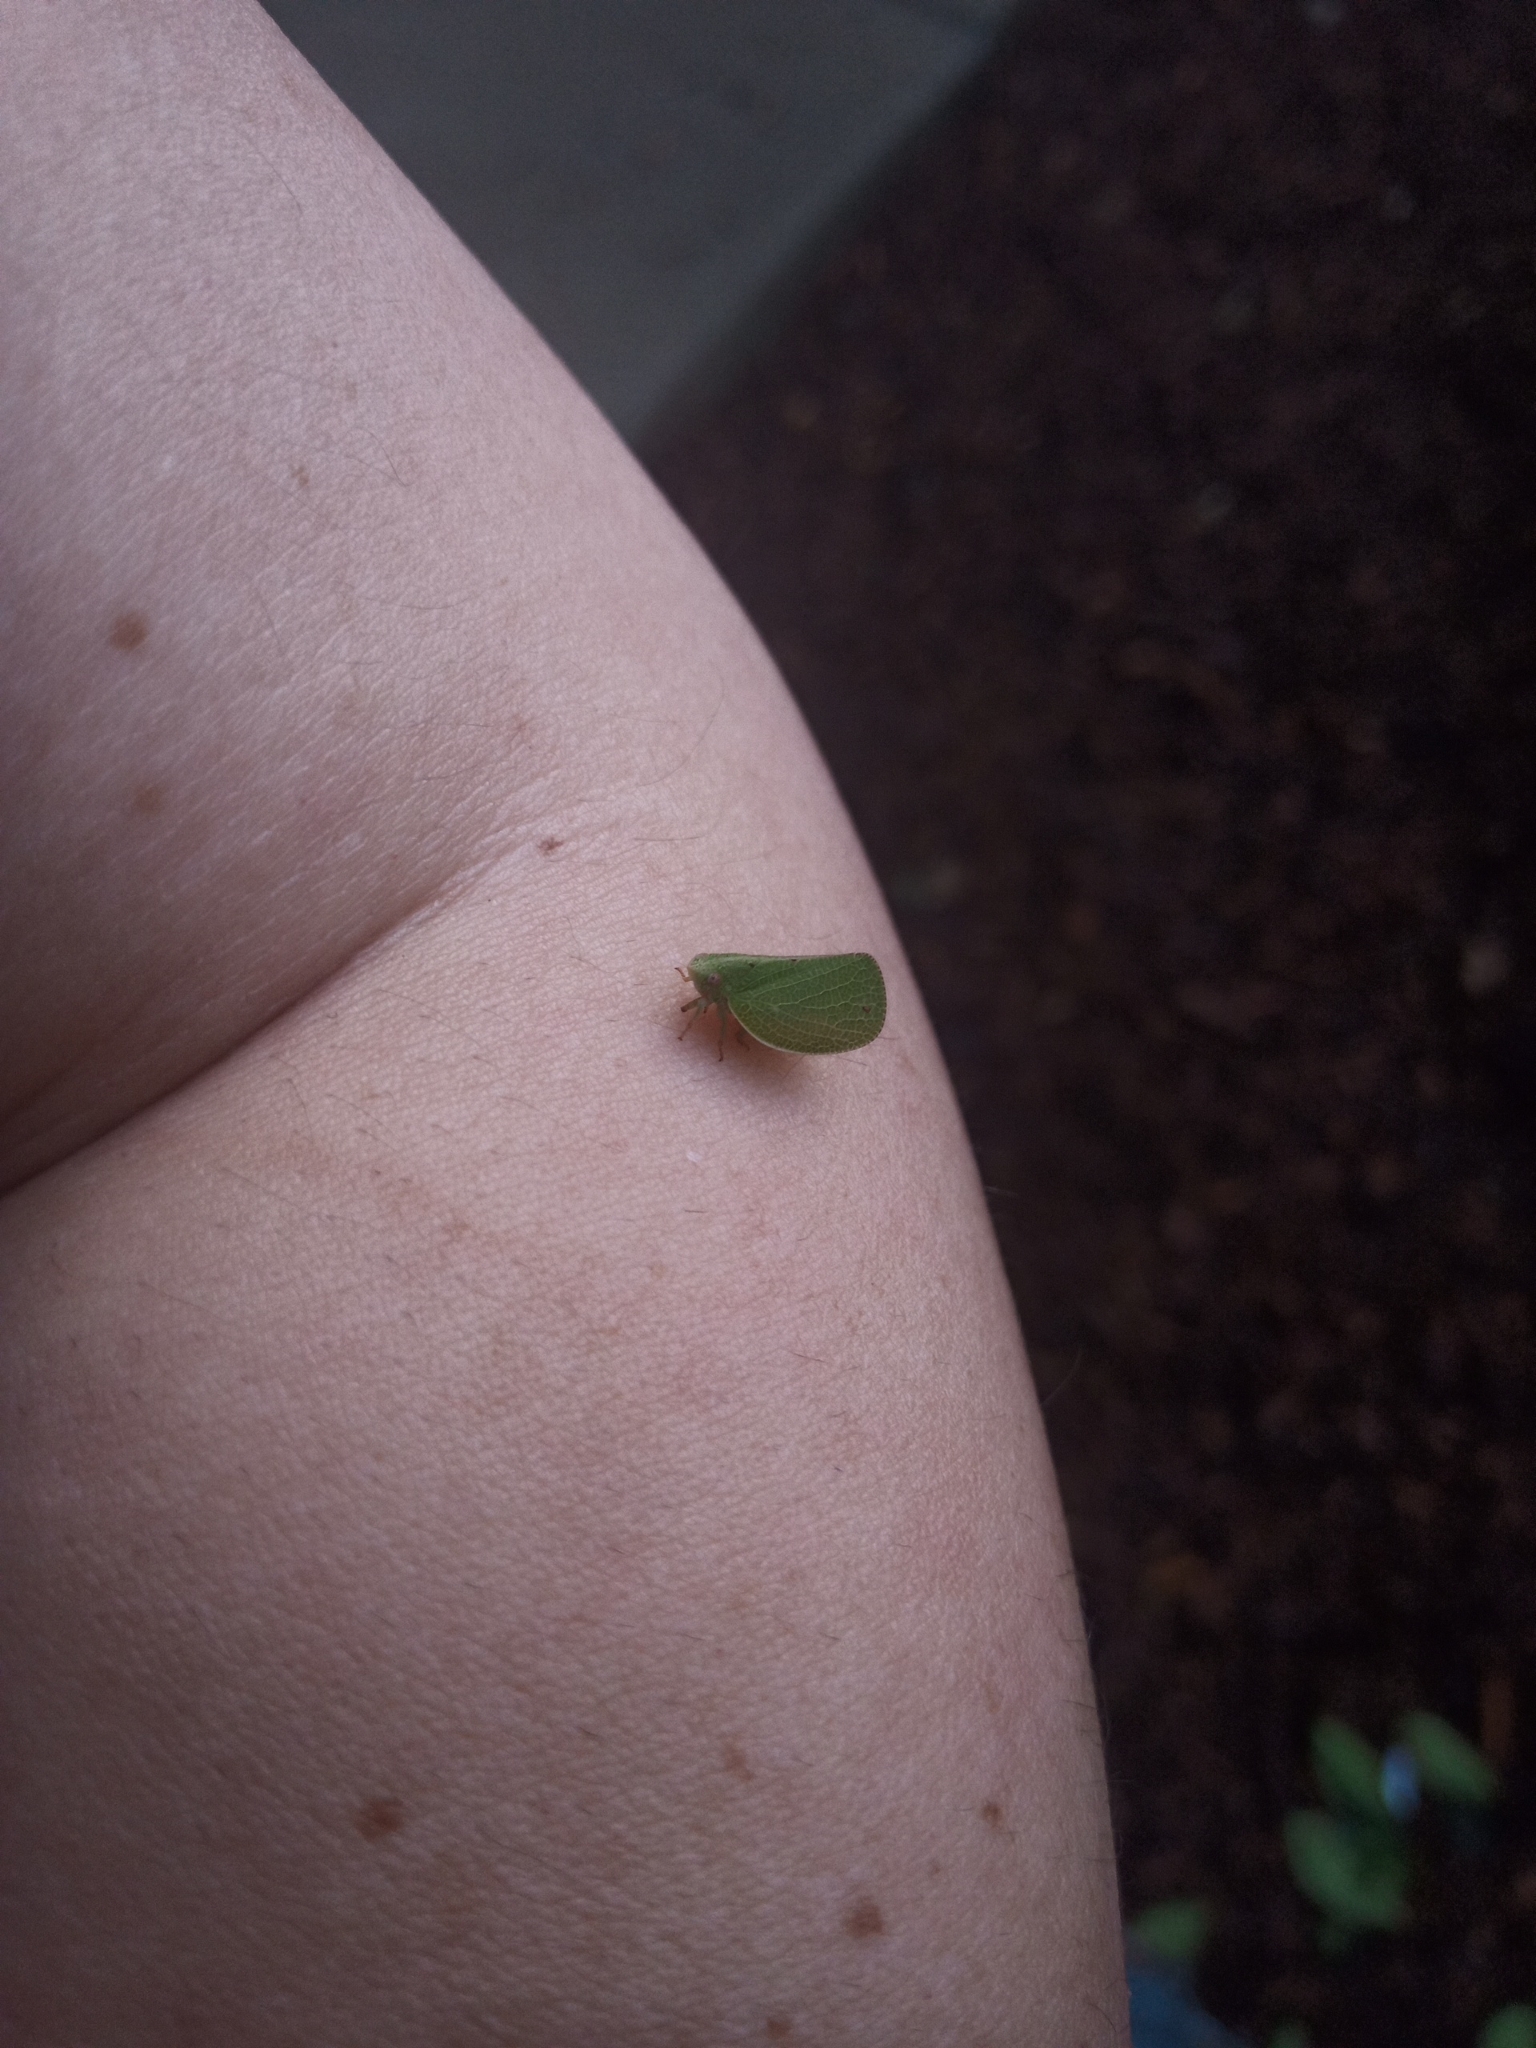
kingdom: Animalia
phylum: Arthropoda
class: Insecta
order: Hemiptera
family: Acanaloniidae
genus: Acanalonia
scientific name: Acanalonia conica
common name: Green cone-headed planthopper
